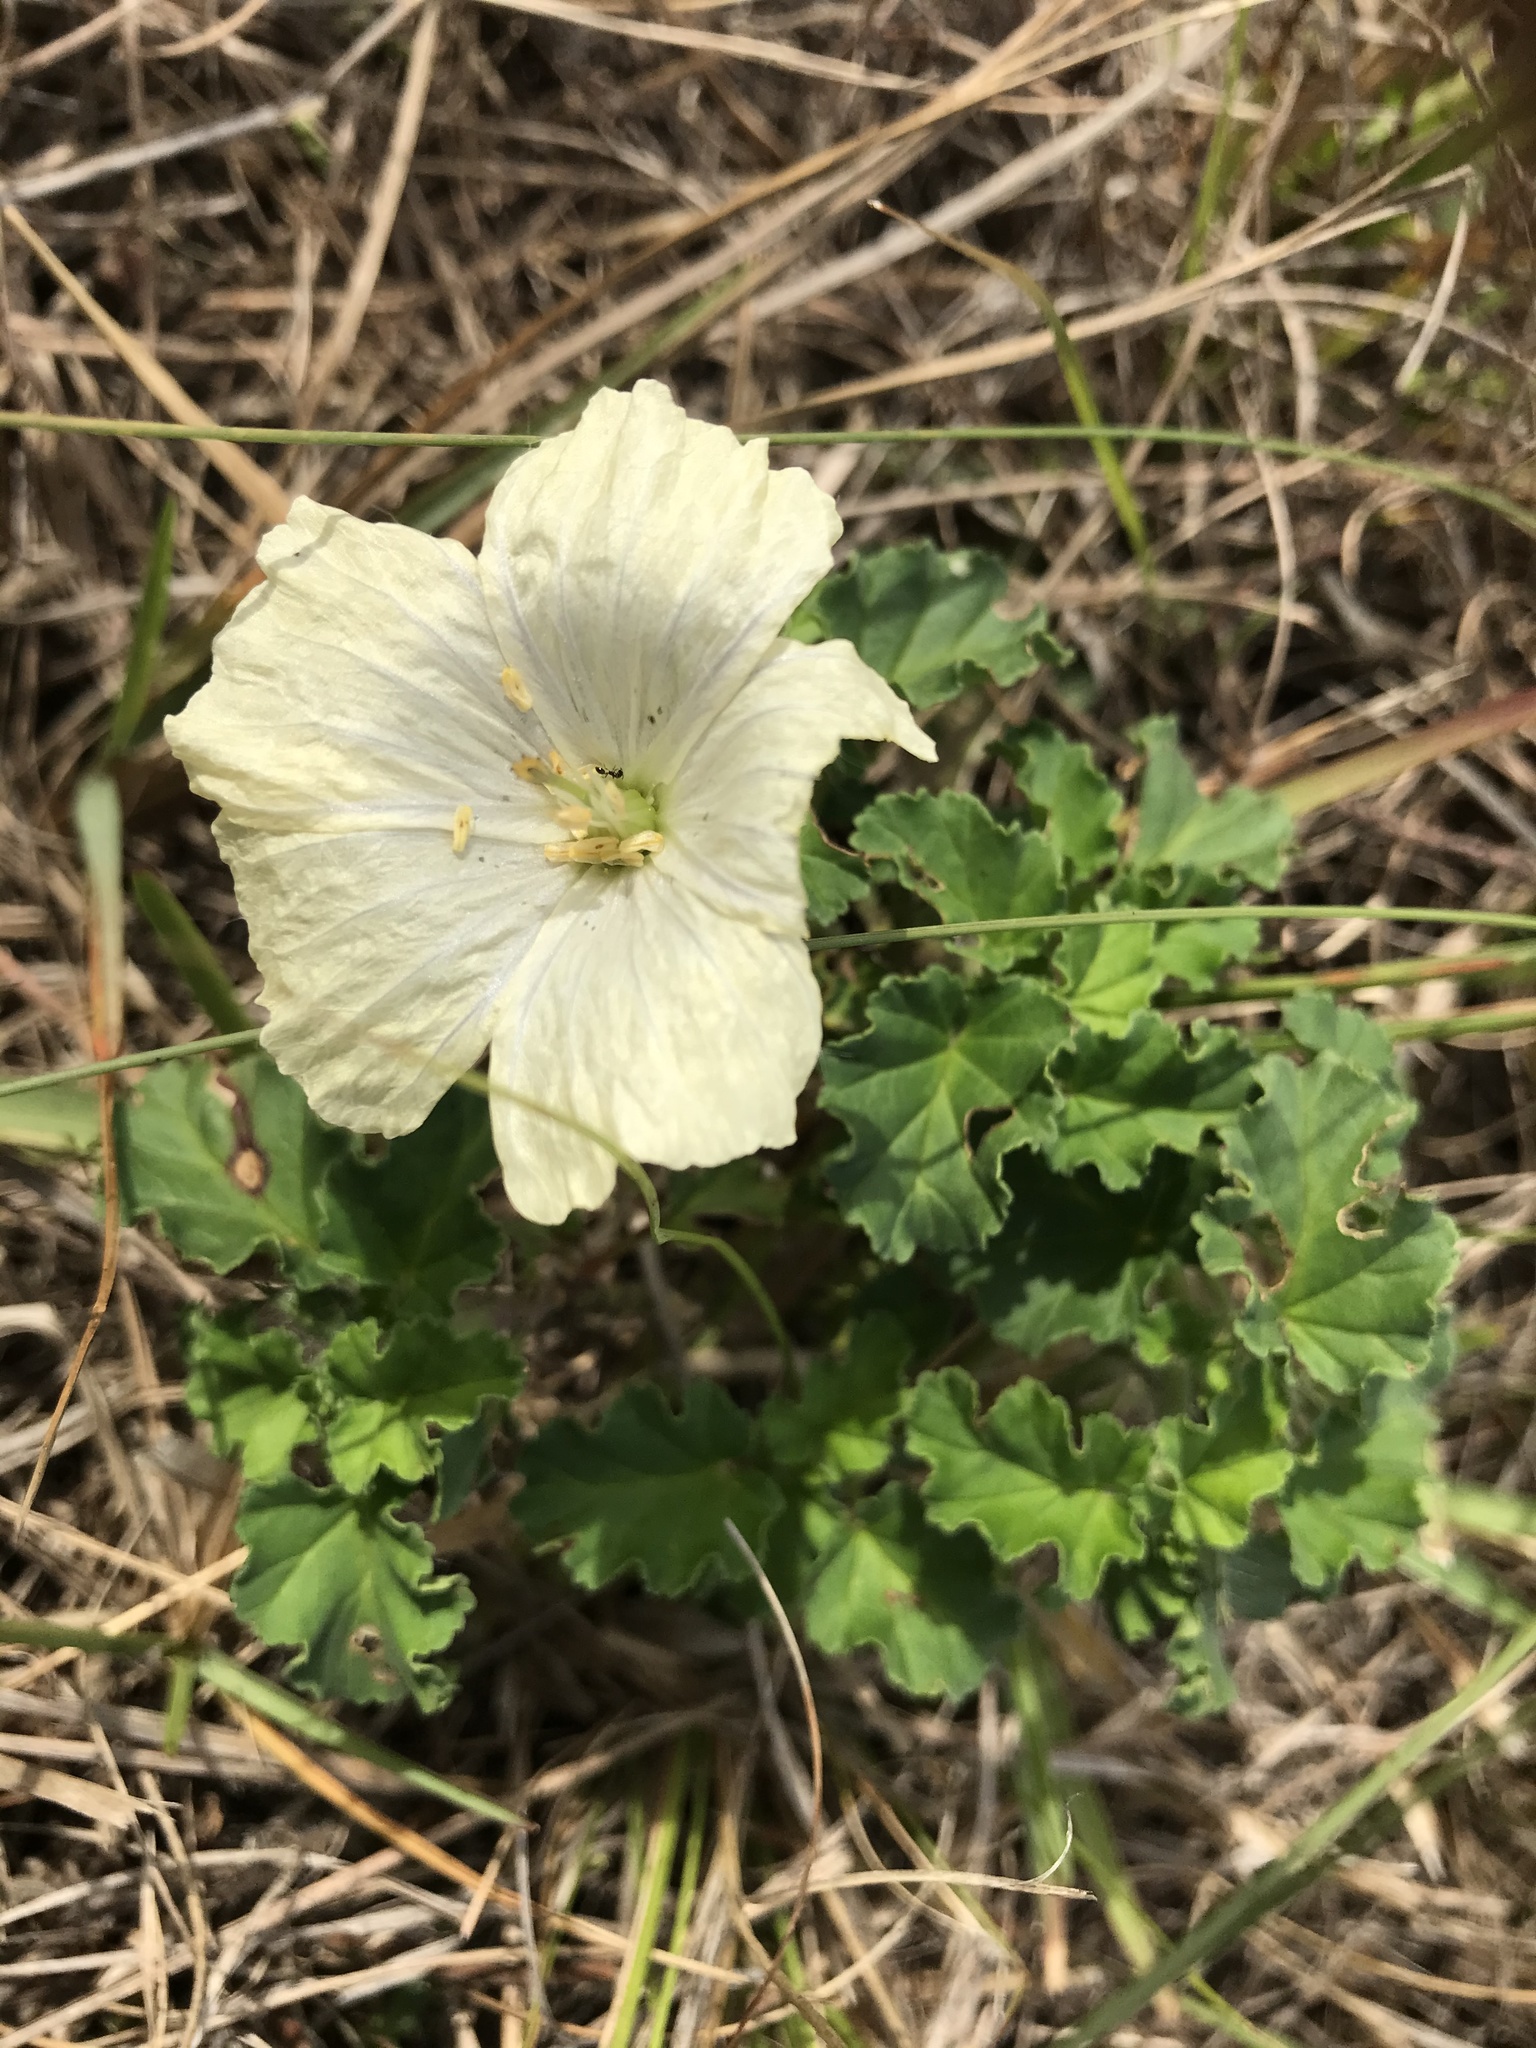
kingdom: Plantae
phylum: Tracheophyta
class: Magnoliopsida
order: Geraniales
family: Geraniaceae
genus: Monsonia
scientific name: Monsonia emarginata
